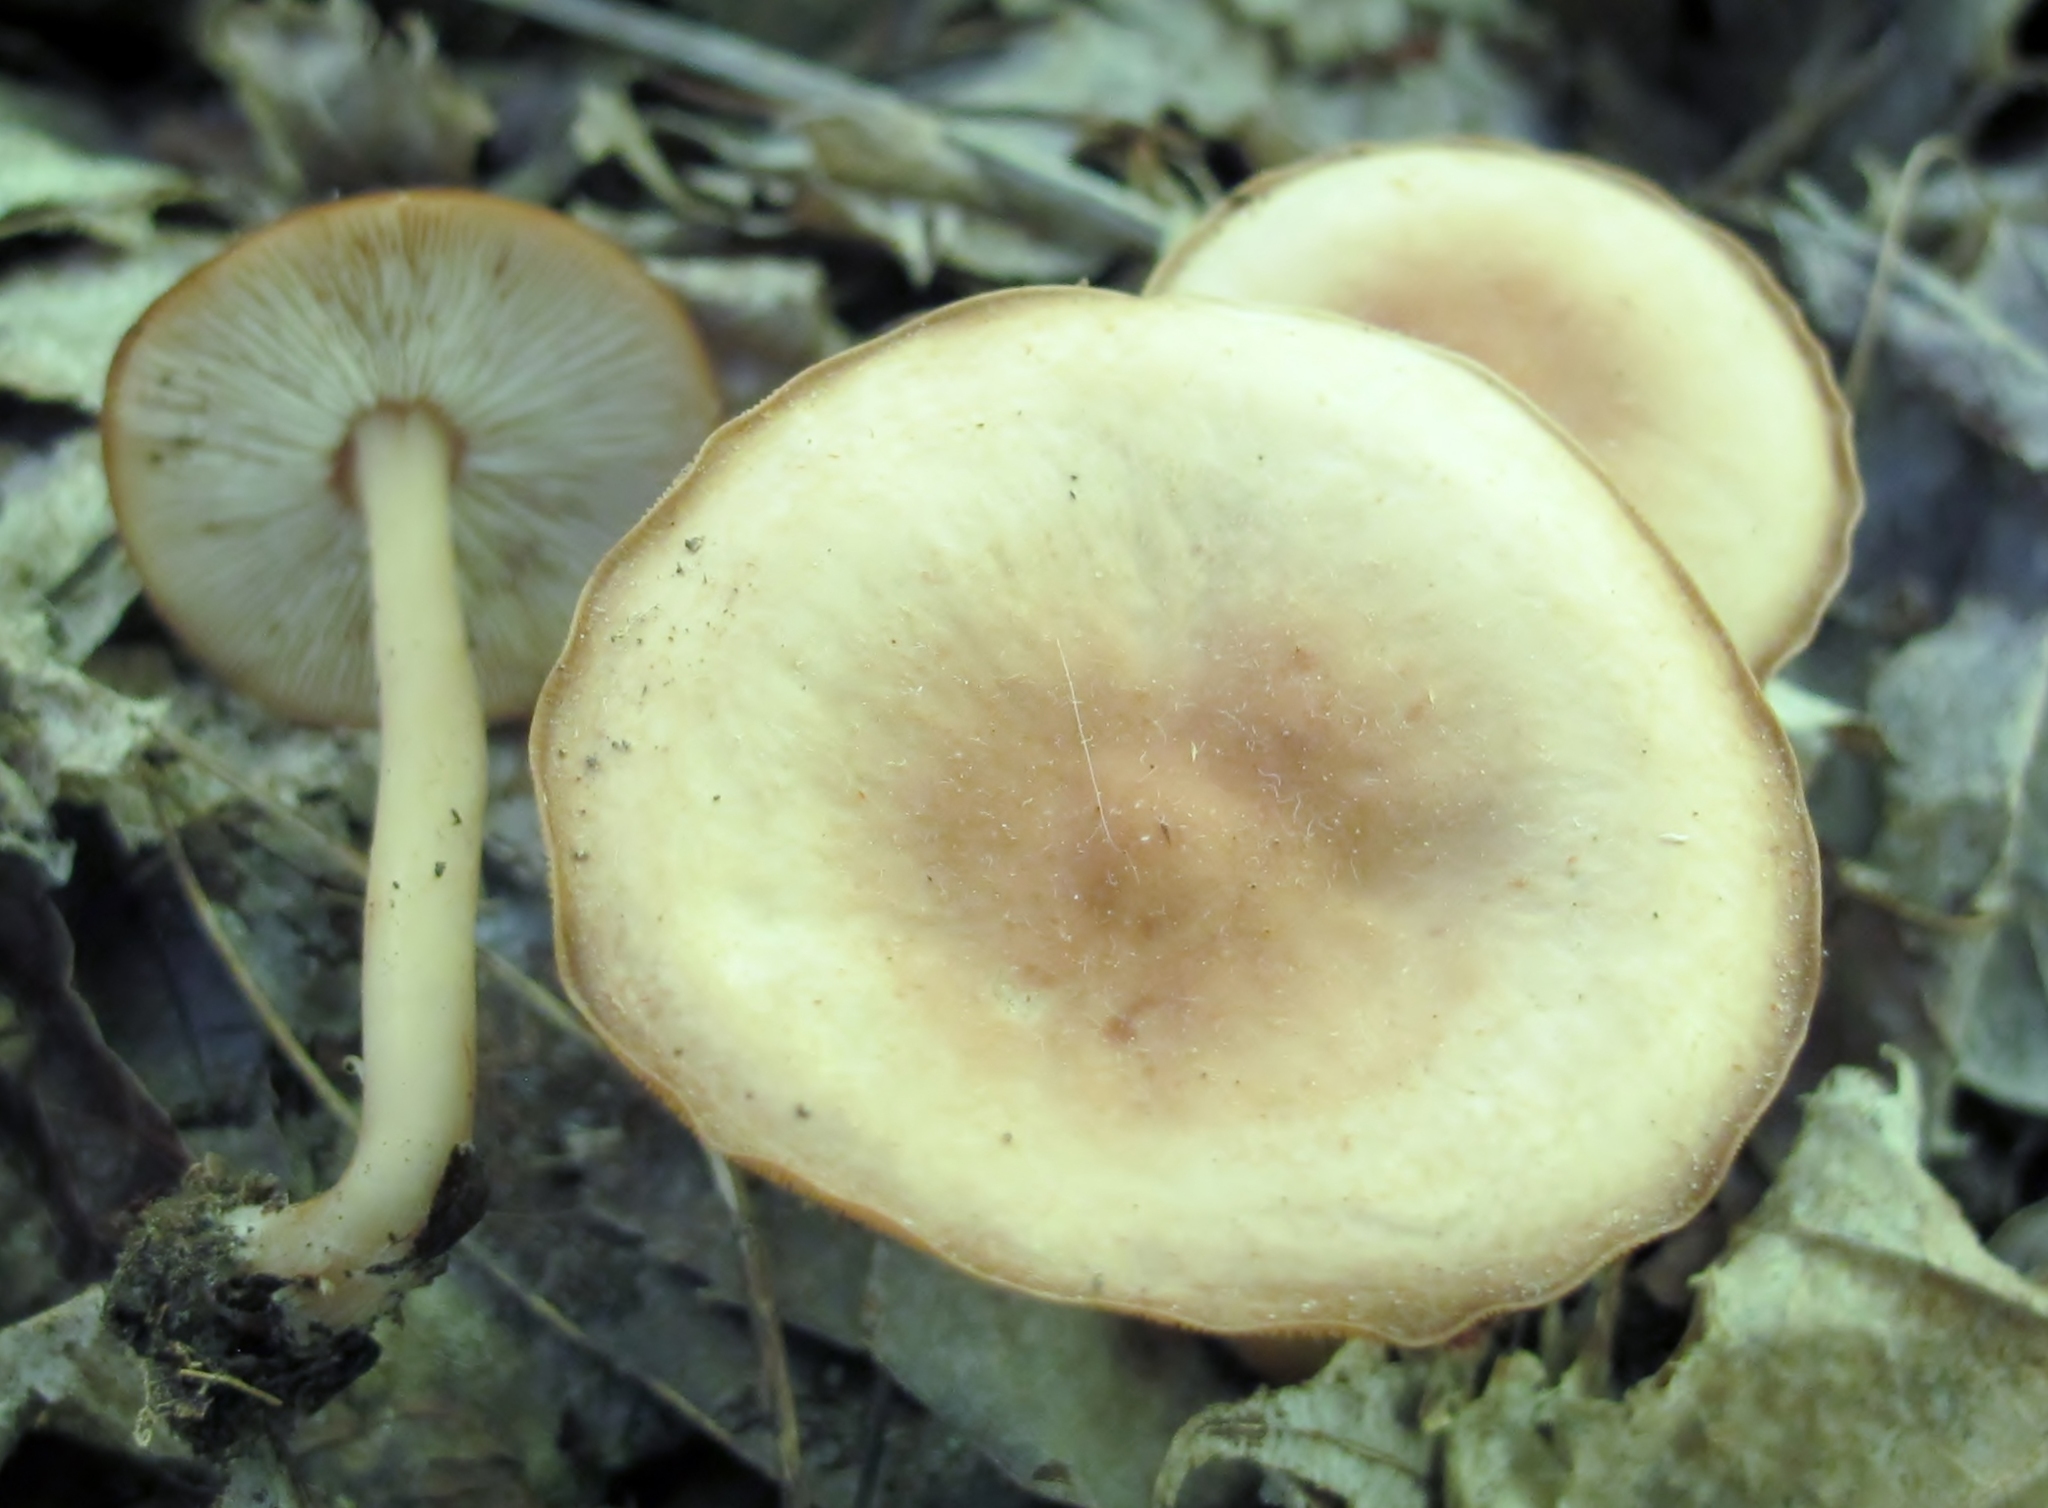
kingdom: Fungi
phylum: Basidiomycota
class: Agaricomycetes
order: Agaricales
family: Omphalotaceae
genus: Gymnopus
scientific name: Gymnopus earleae
